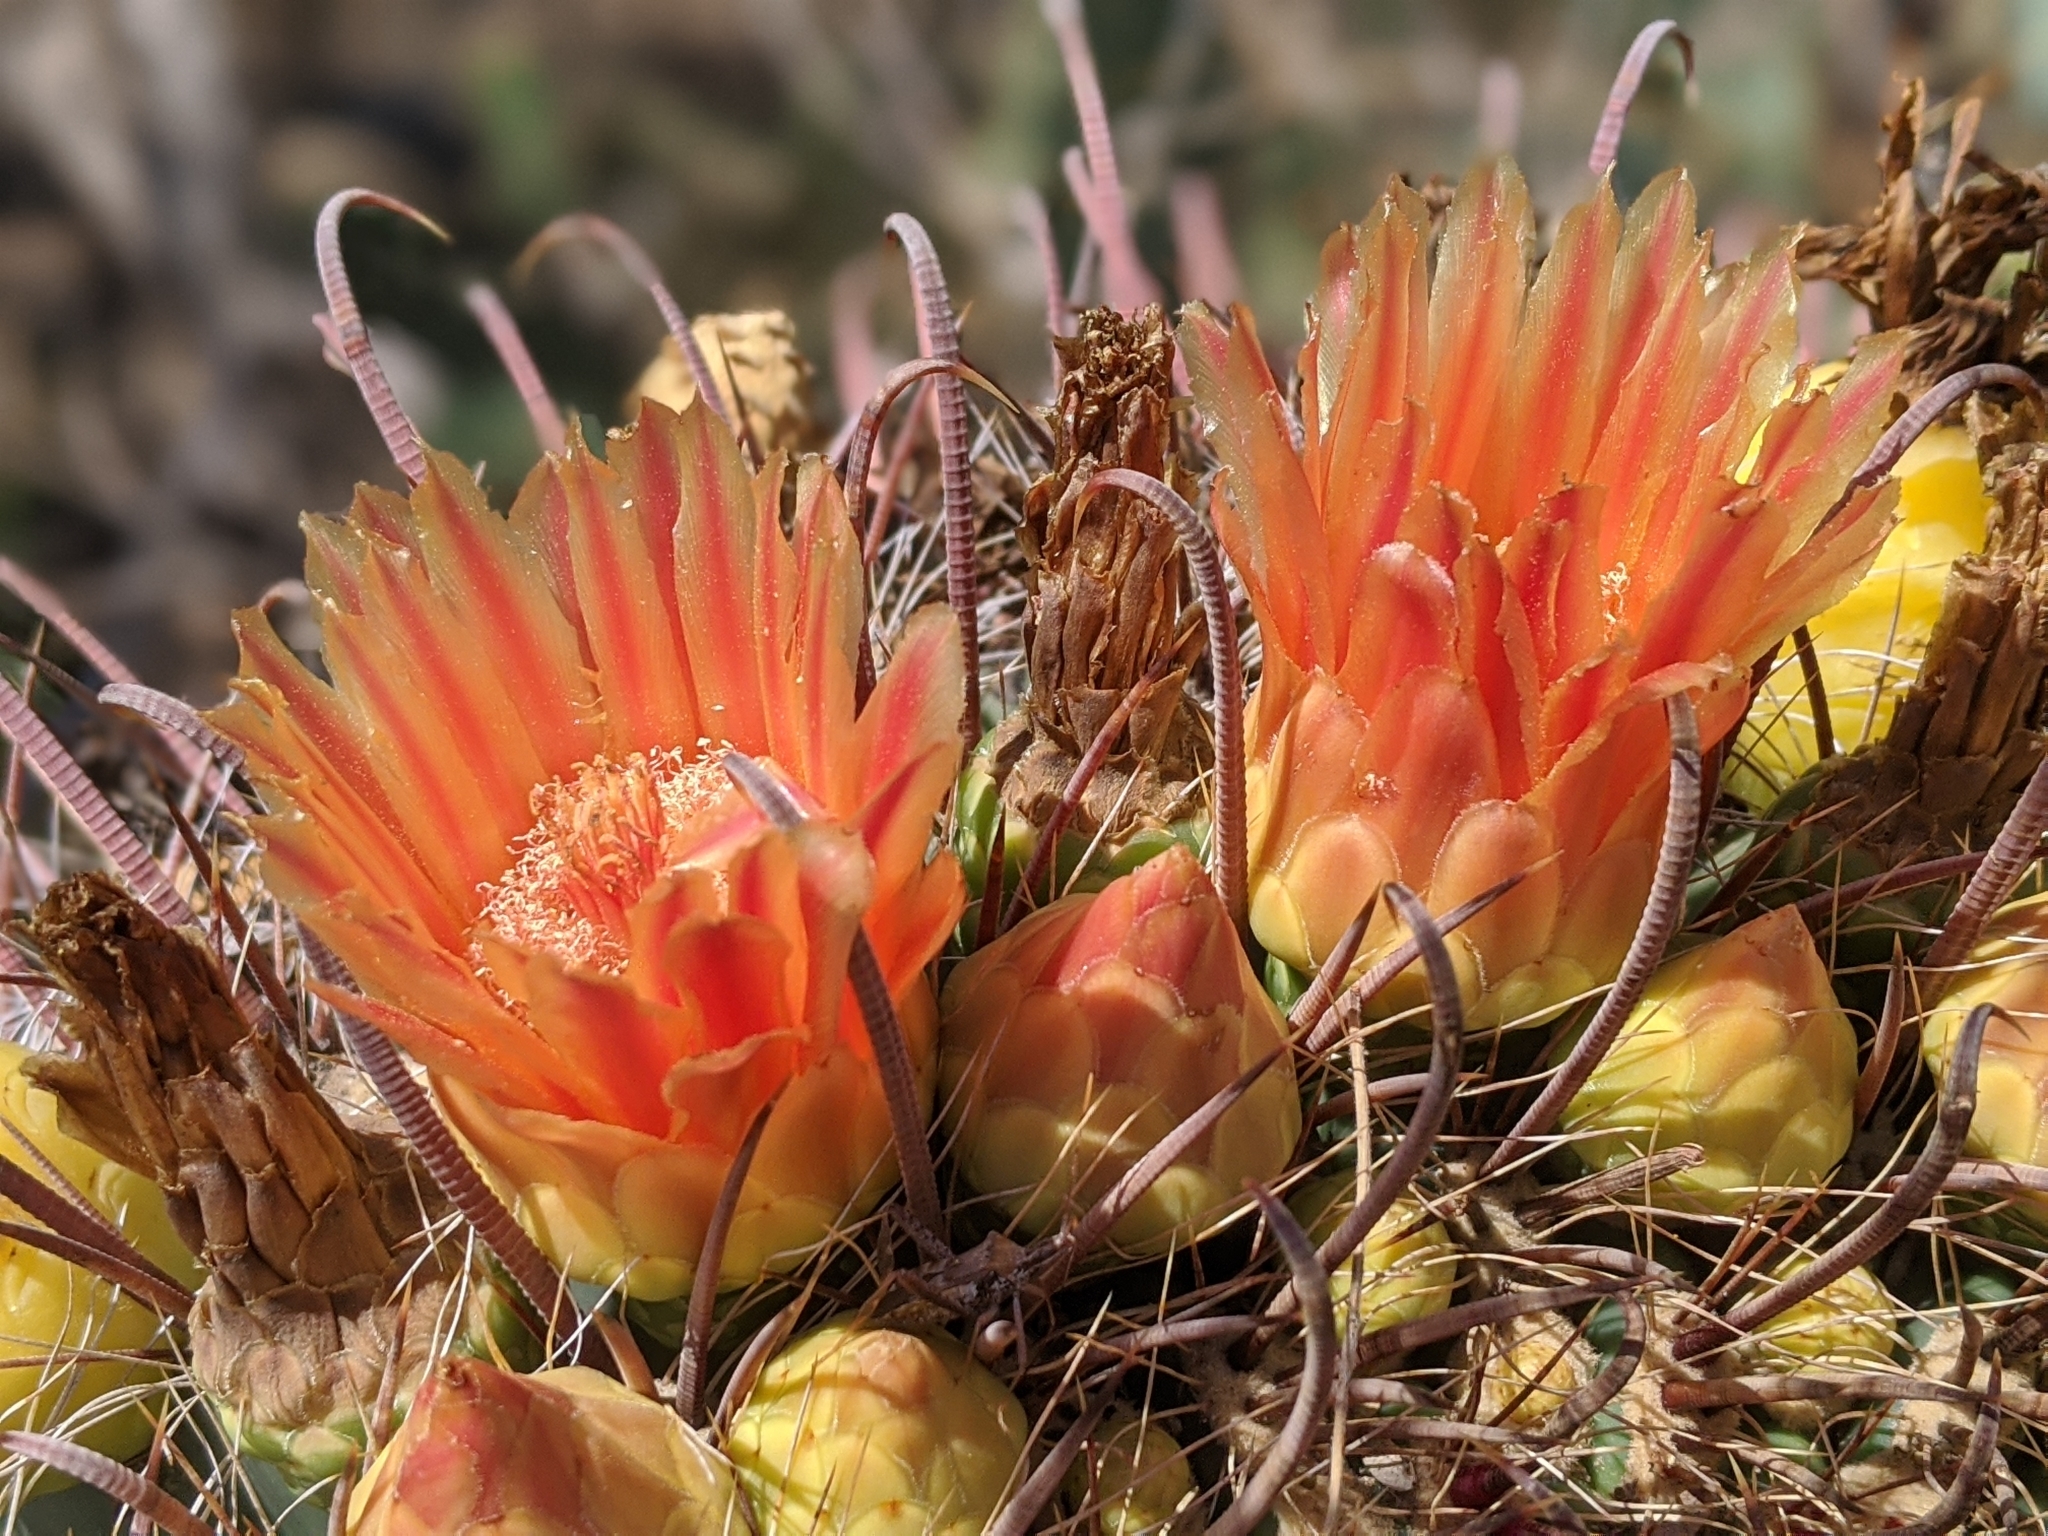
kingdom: Plantae
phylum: Tracheophyta
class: Magnoliopsida
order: Caryophyllales
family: Cactaceae
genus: Ferocactus
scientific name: Ferocactus wislizeni
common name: Candy barrel cactus
